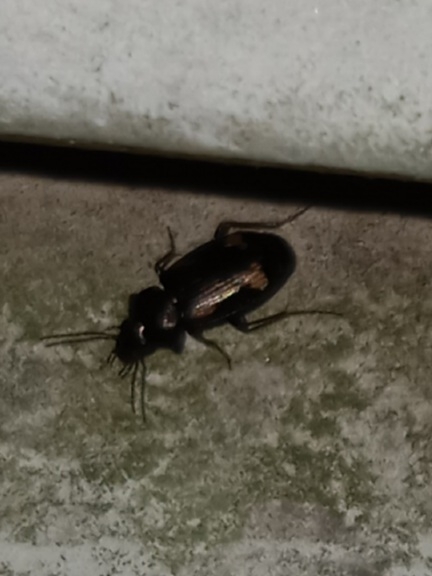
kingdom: Animalia
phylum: Arthropoda
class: Insecta
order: Coleoptera
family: Carabidae
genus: Tetragonoderus
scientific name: Tetragonoderus intersectus
